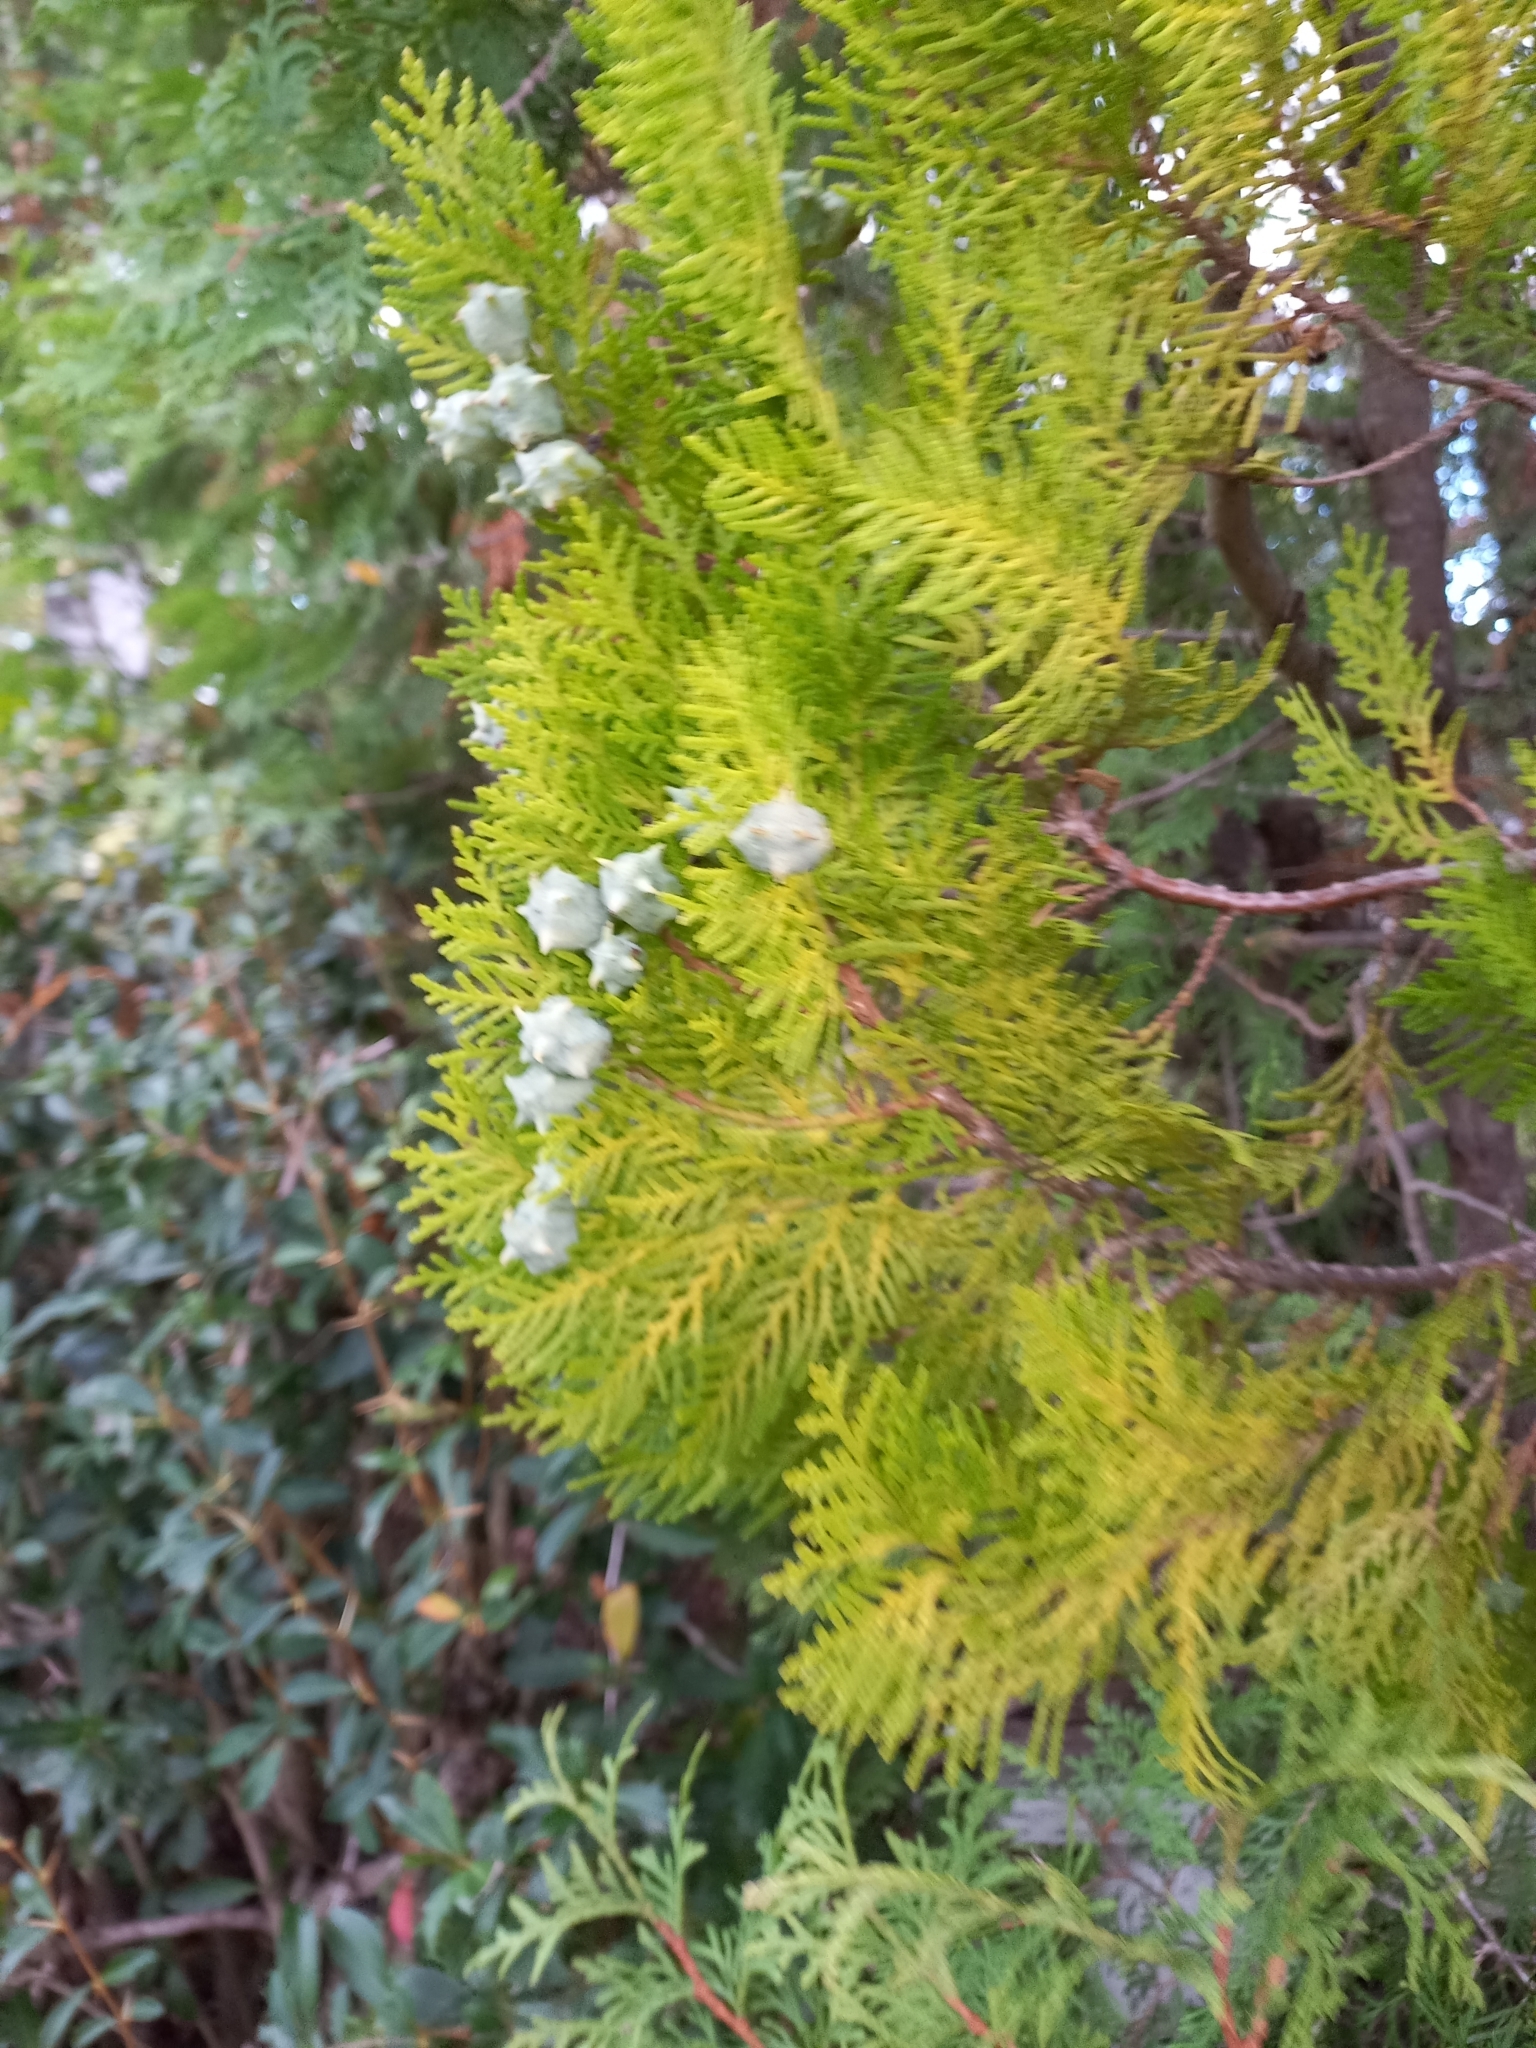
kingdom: Plantae
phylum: Tracheophyta
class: Pinopsida
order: Pinales
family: Cupressaceae
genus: Chamaecyparis
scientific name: Chamaecyparis lawsoniana
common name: Lawson's cypress
